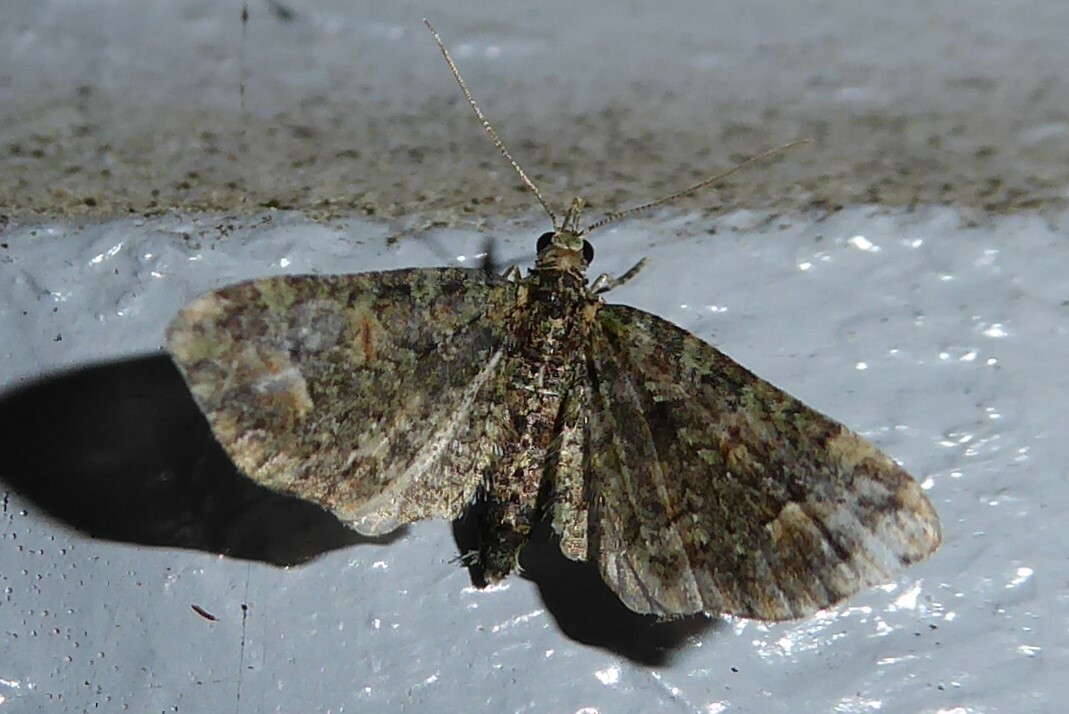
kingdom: Animalia
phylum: Arthropoda
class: Insecta
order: Lepidoptera
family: Geometridae
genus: Idaea
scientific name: Idaea mutanda
